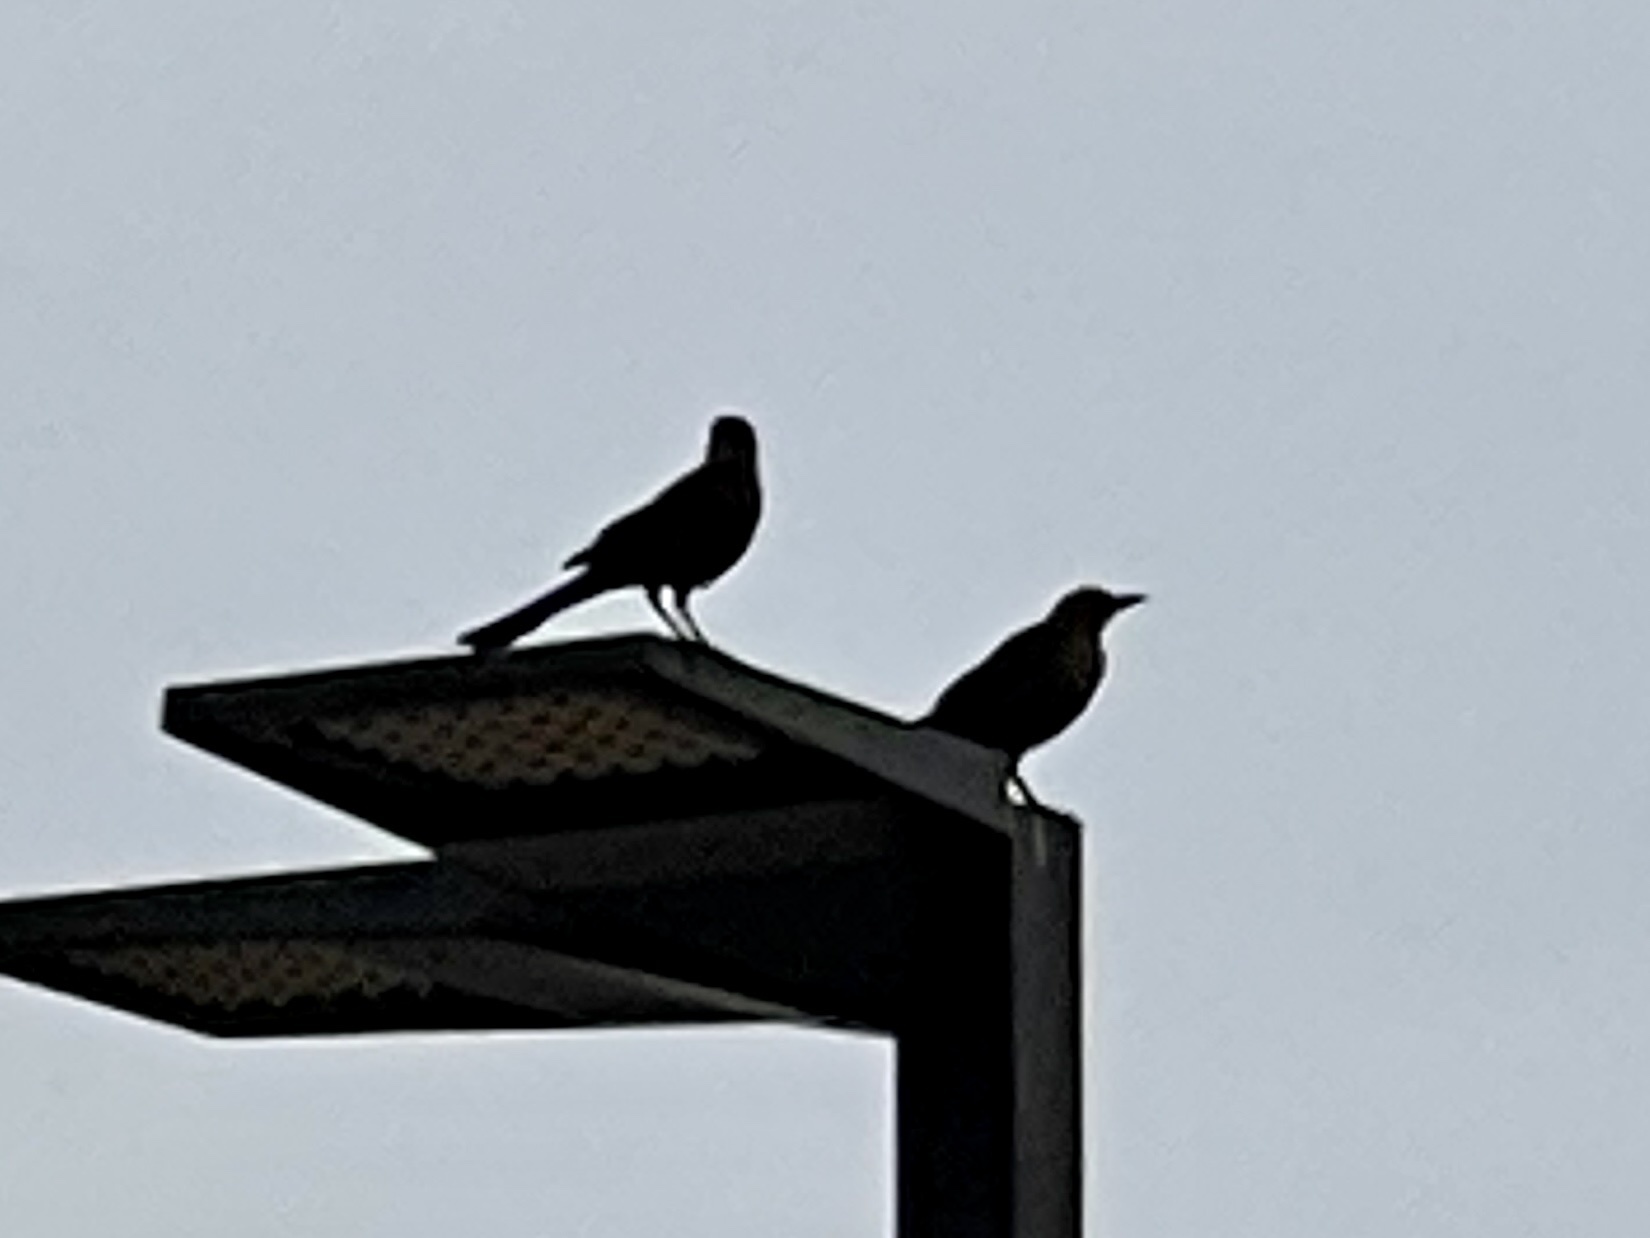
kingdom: Animalia
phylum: Chordata
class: Aves
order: Passeriformes
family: Icteridae
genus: Quiscalus
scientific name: Quiscalus mexicanus
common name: Great-tailed grackle
